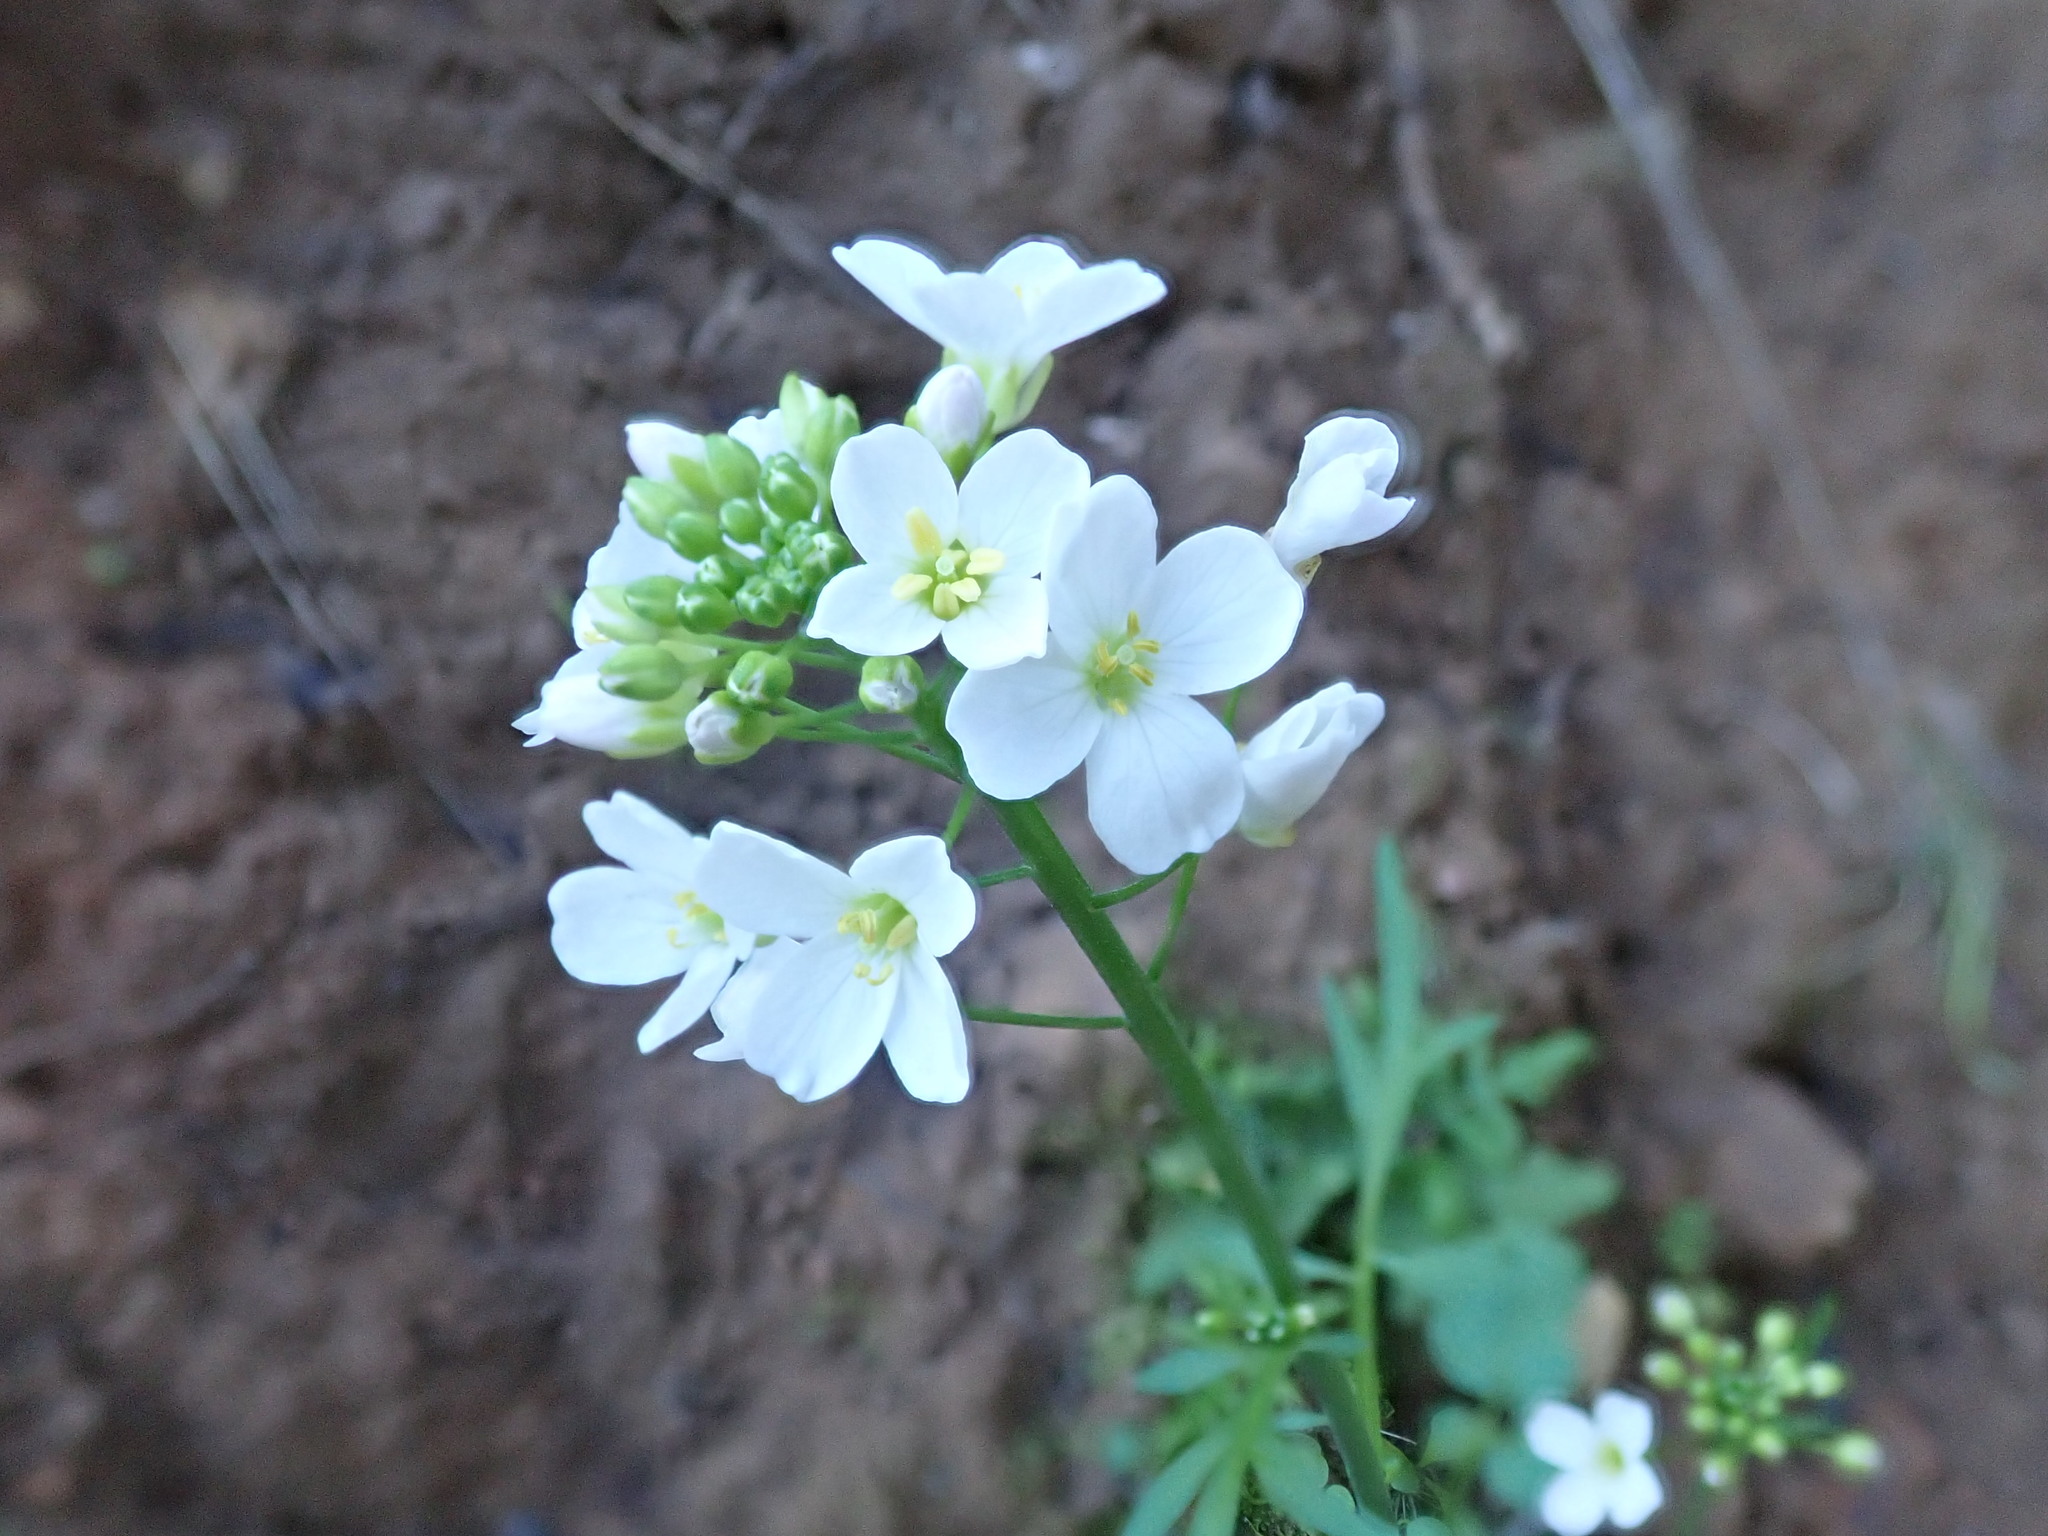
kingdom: Plantae
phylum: Tracheophyta
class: Magnoliopsida
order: Brassicales
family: Brassicaceae
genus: Cardamine
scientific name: Cardamine californica
